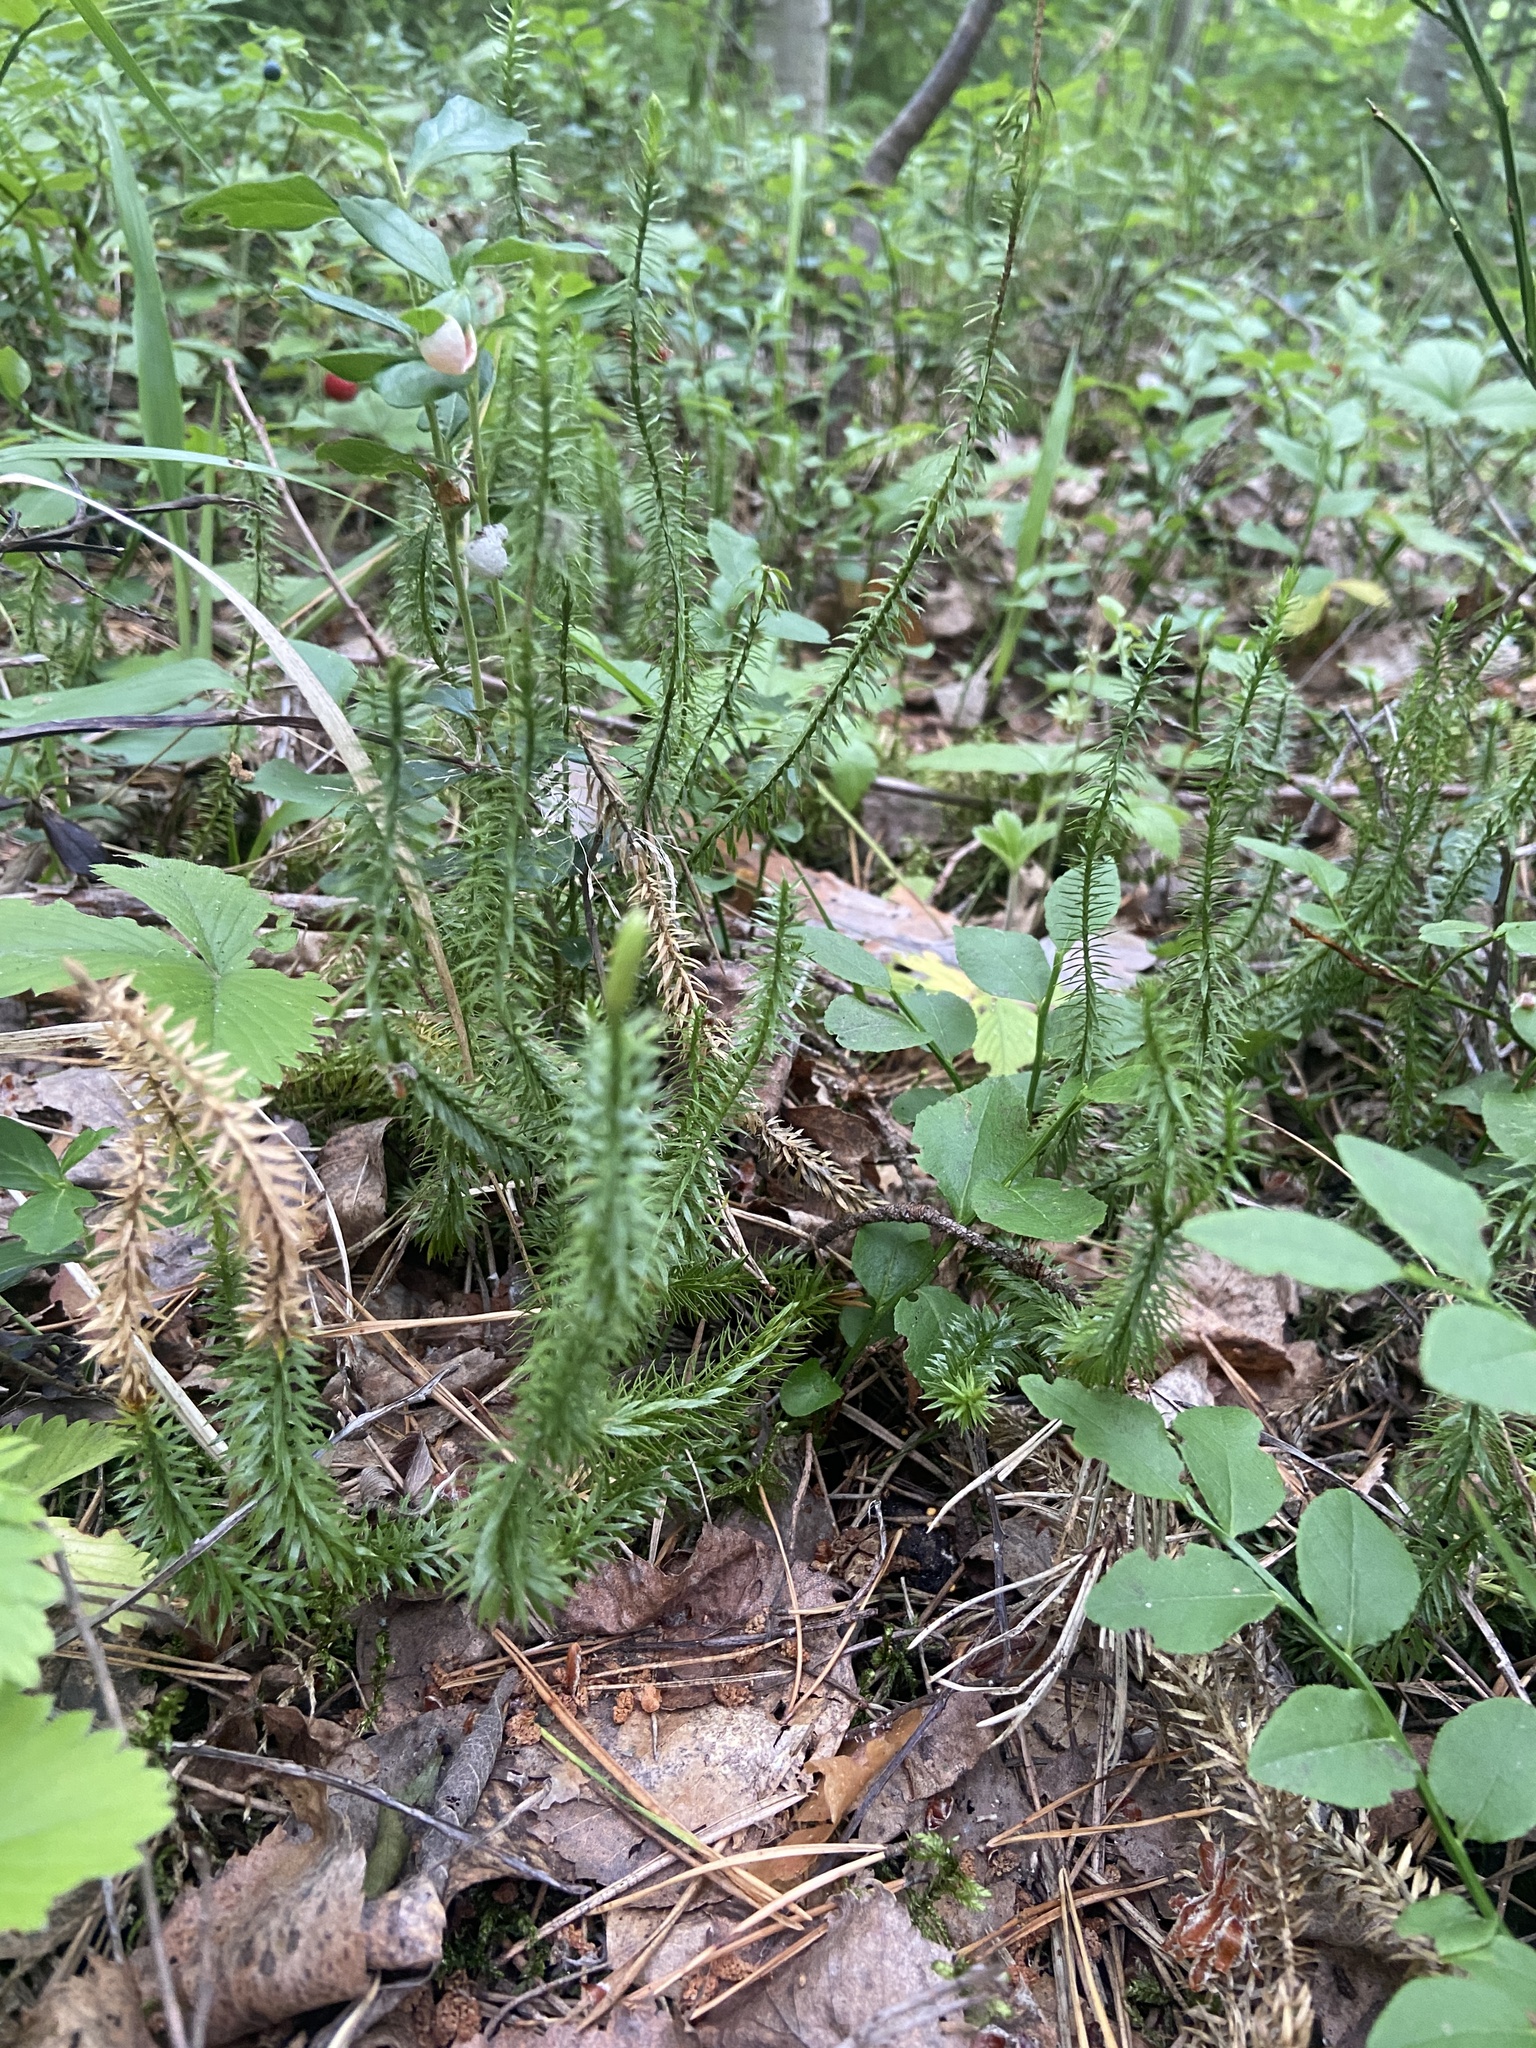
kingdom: Plantae
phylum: Tracheophyta
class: Lycopodiopsida
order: Lycopodiales
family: Lycopodiaceae
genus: Spinulum
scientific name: Spinulum annotinum
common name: Interrupted club-moss
